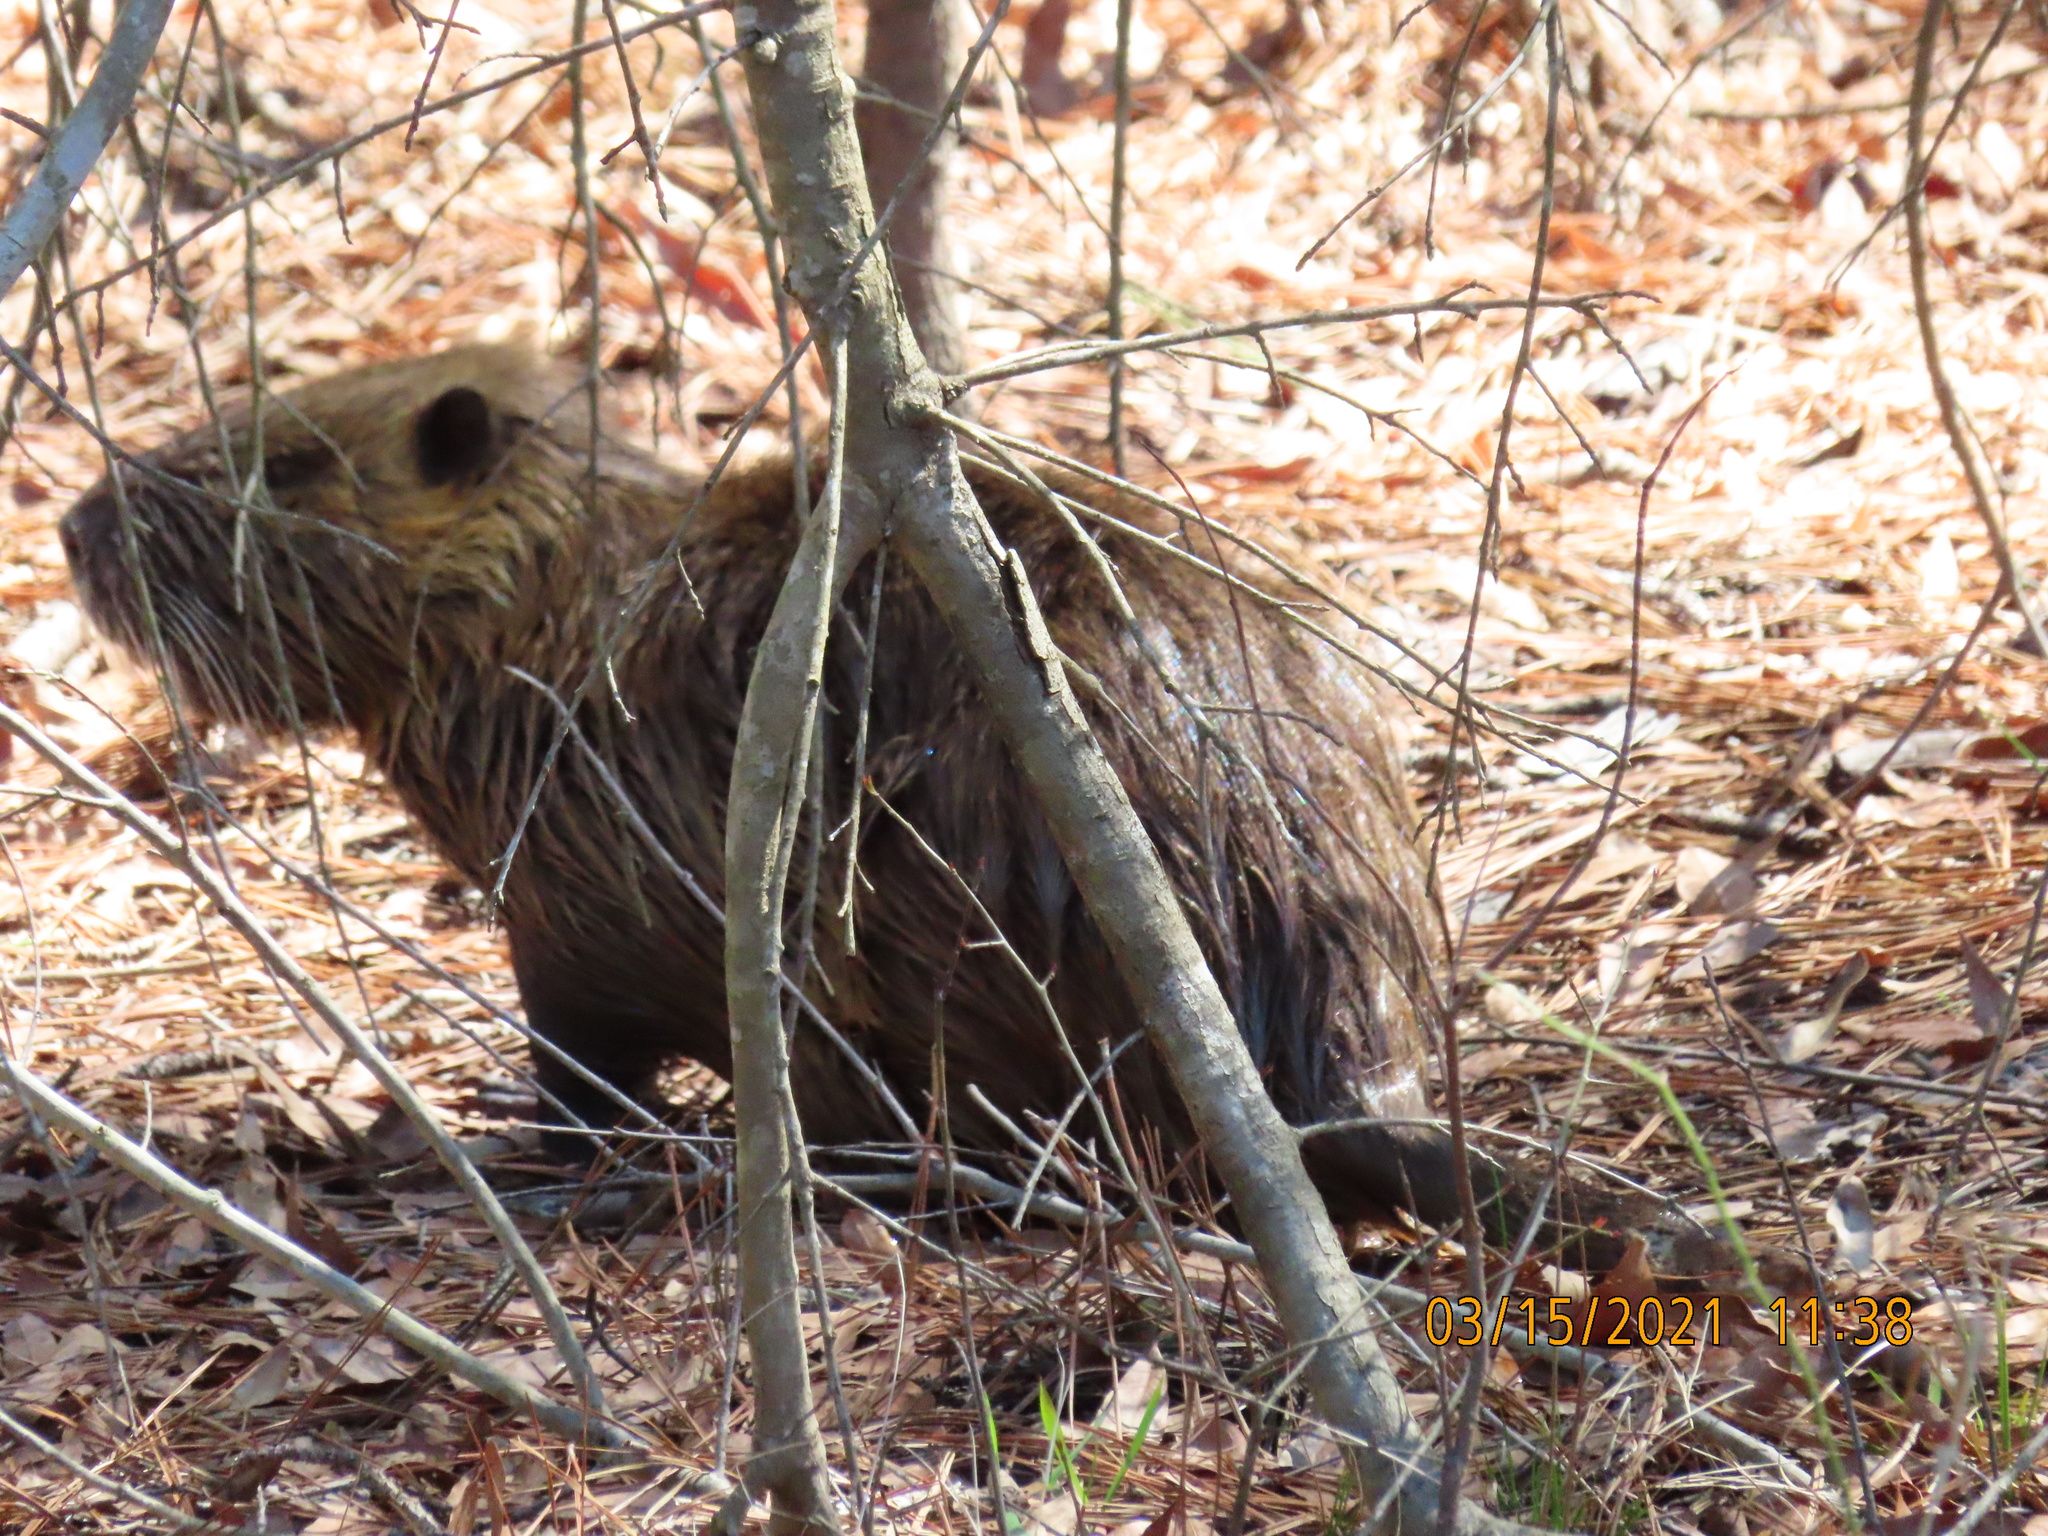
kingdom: Animalia
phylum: Chordata
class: Mammalia
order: Rodentia
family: Myocastoridae
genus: Myocastor
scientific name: Myocastor coypus
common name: Coypu
